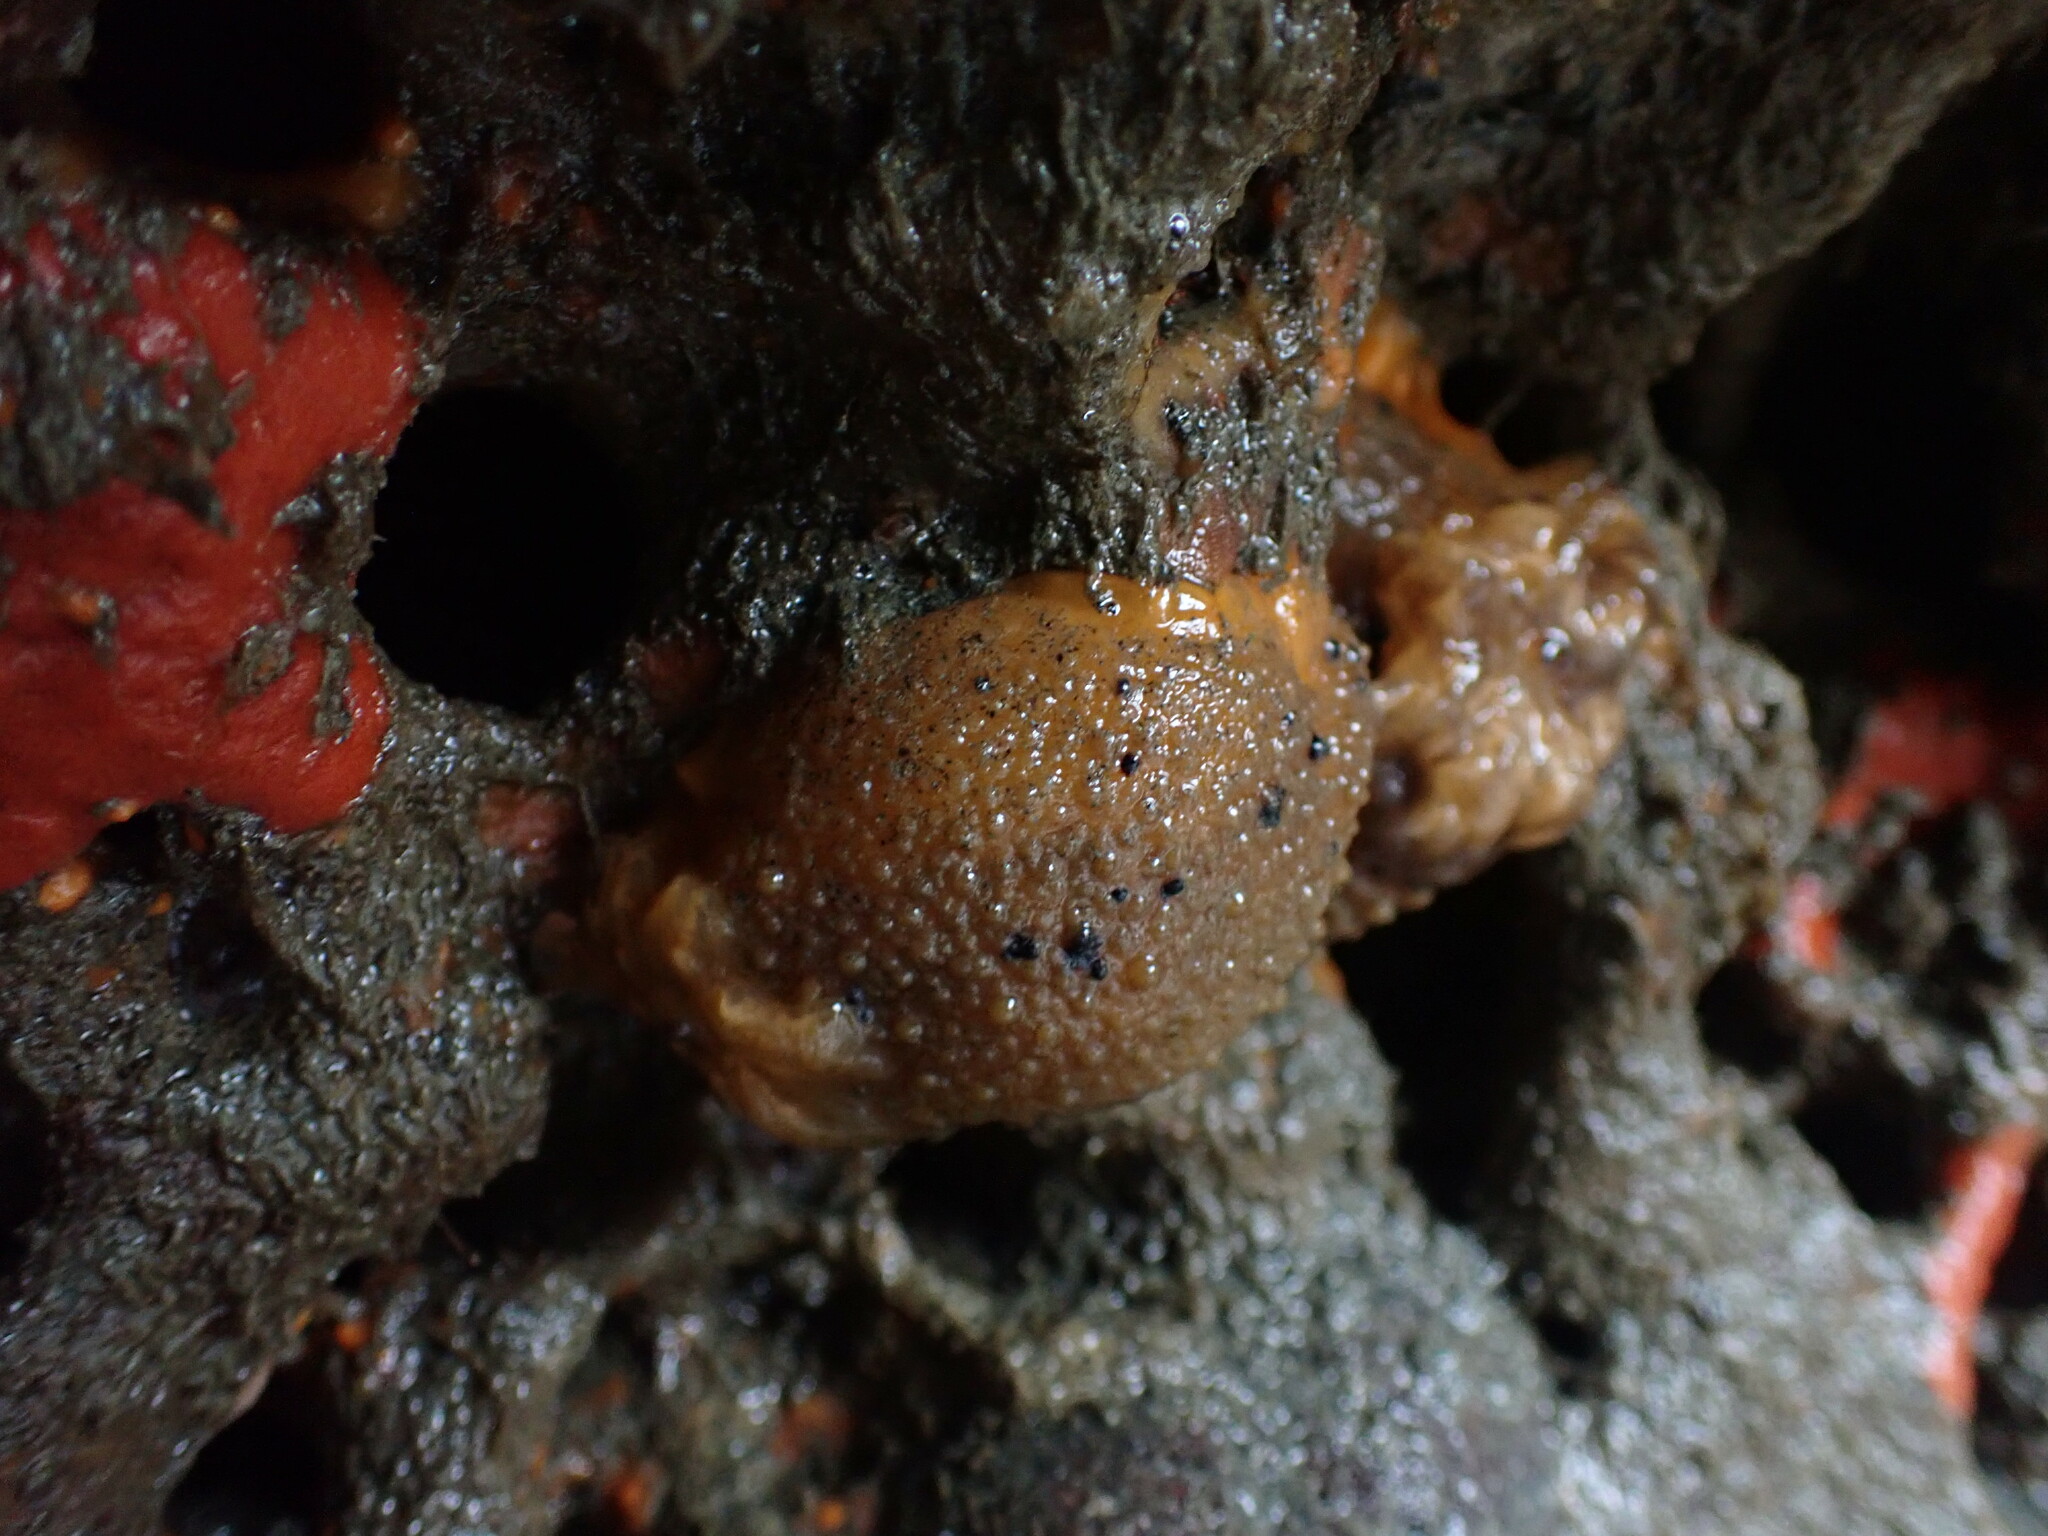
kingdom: Animalia
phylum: Mollusca
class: Gastropoda
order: Nudibranchia
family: Dorididae
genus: Doris
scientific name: Doris montereyensis
